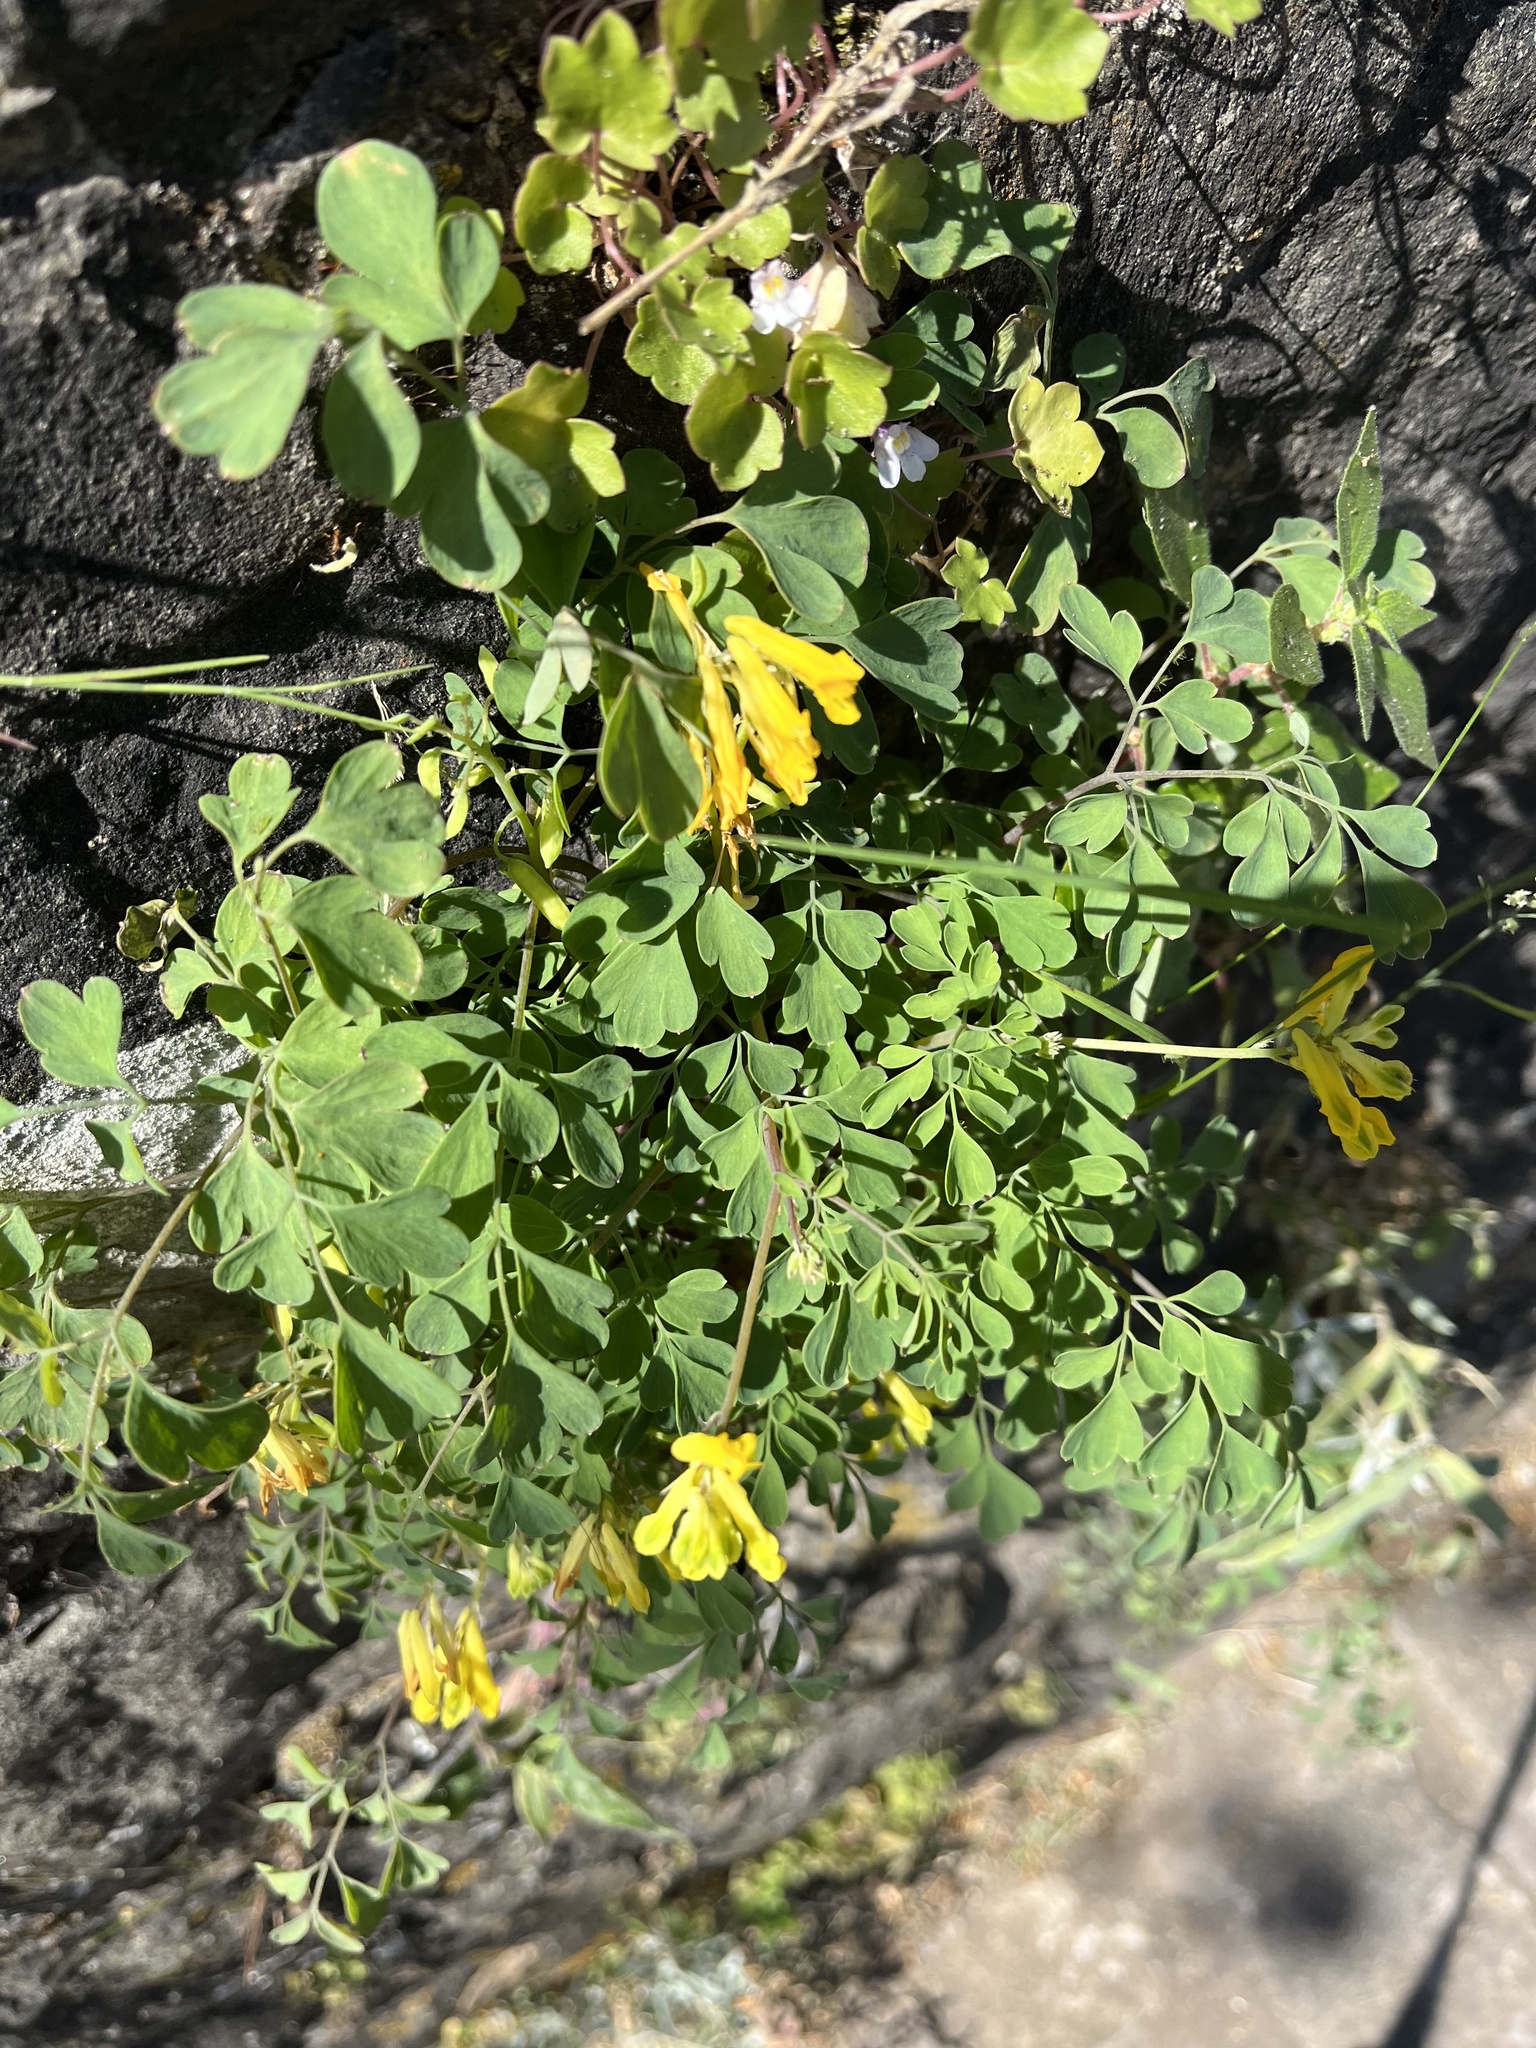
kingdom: Plantae
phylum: Tracheophyta
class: Magnoliopsida
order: Ranunculales
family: Papaveraceae
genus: Pseudofumaria
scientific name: Pseudofumaria lutea
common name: Yellow corydalis
